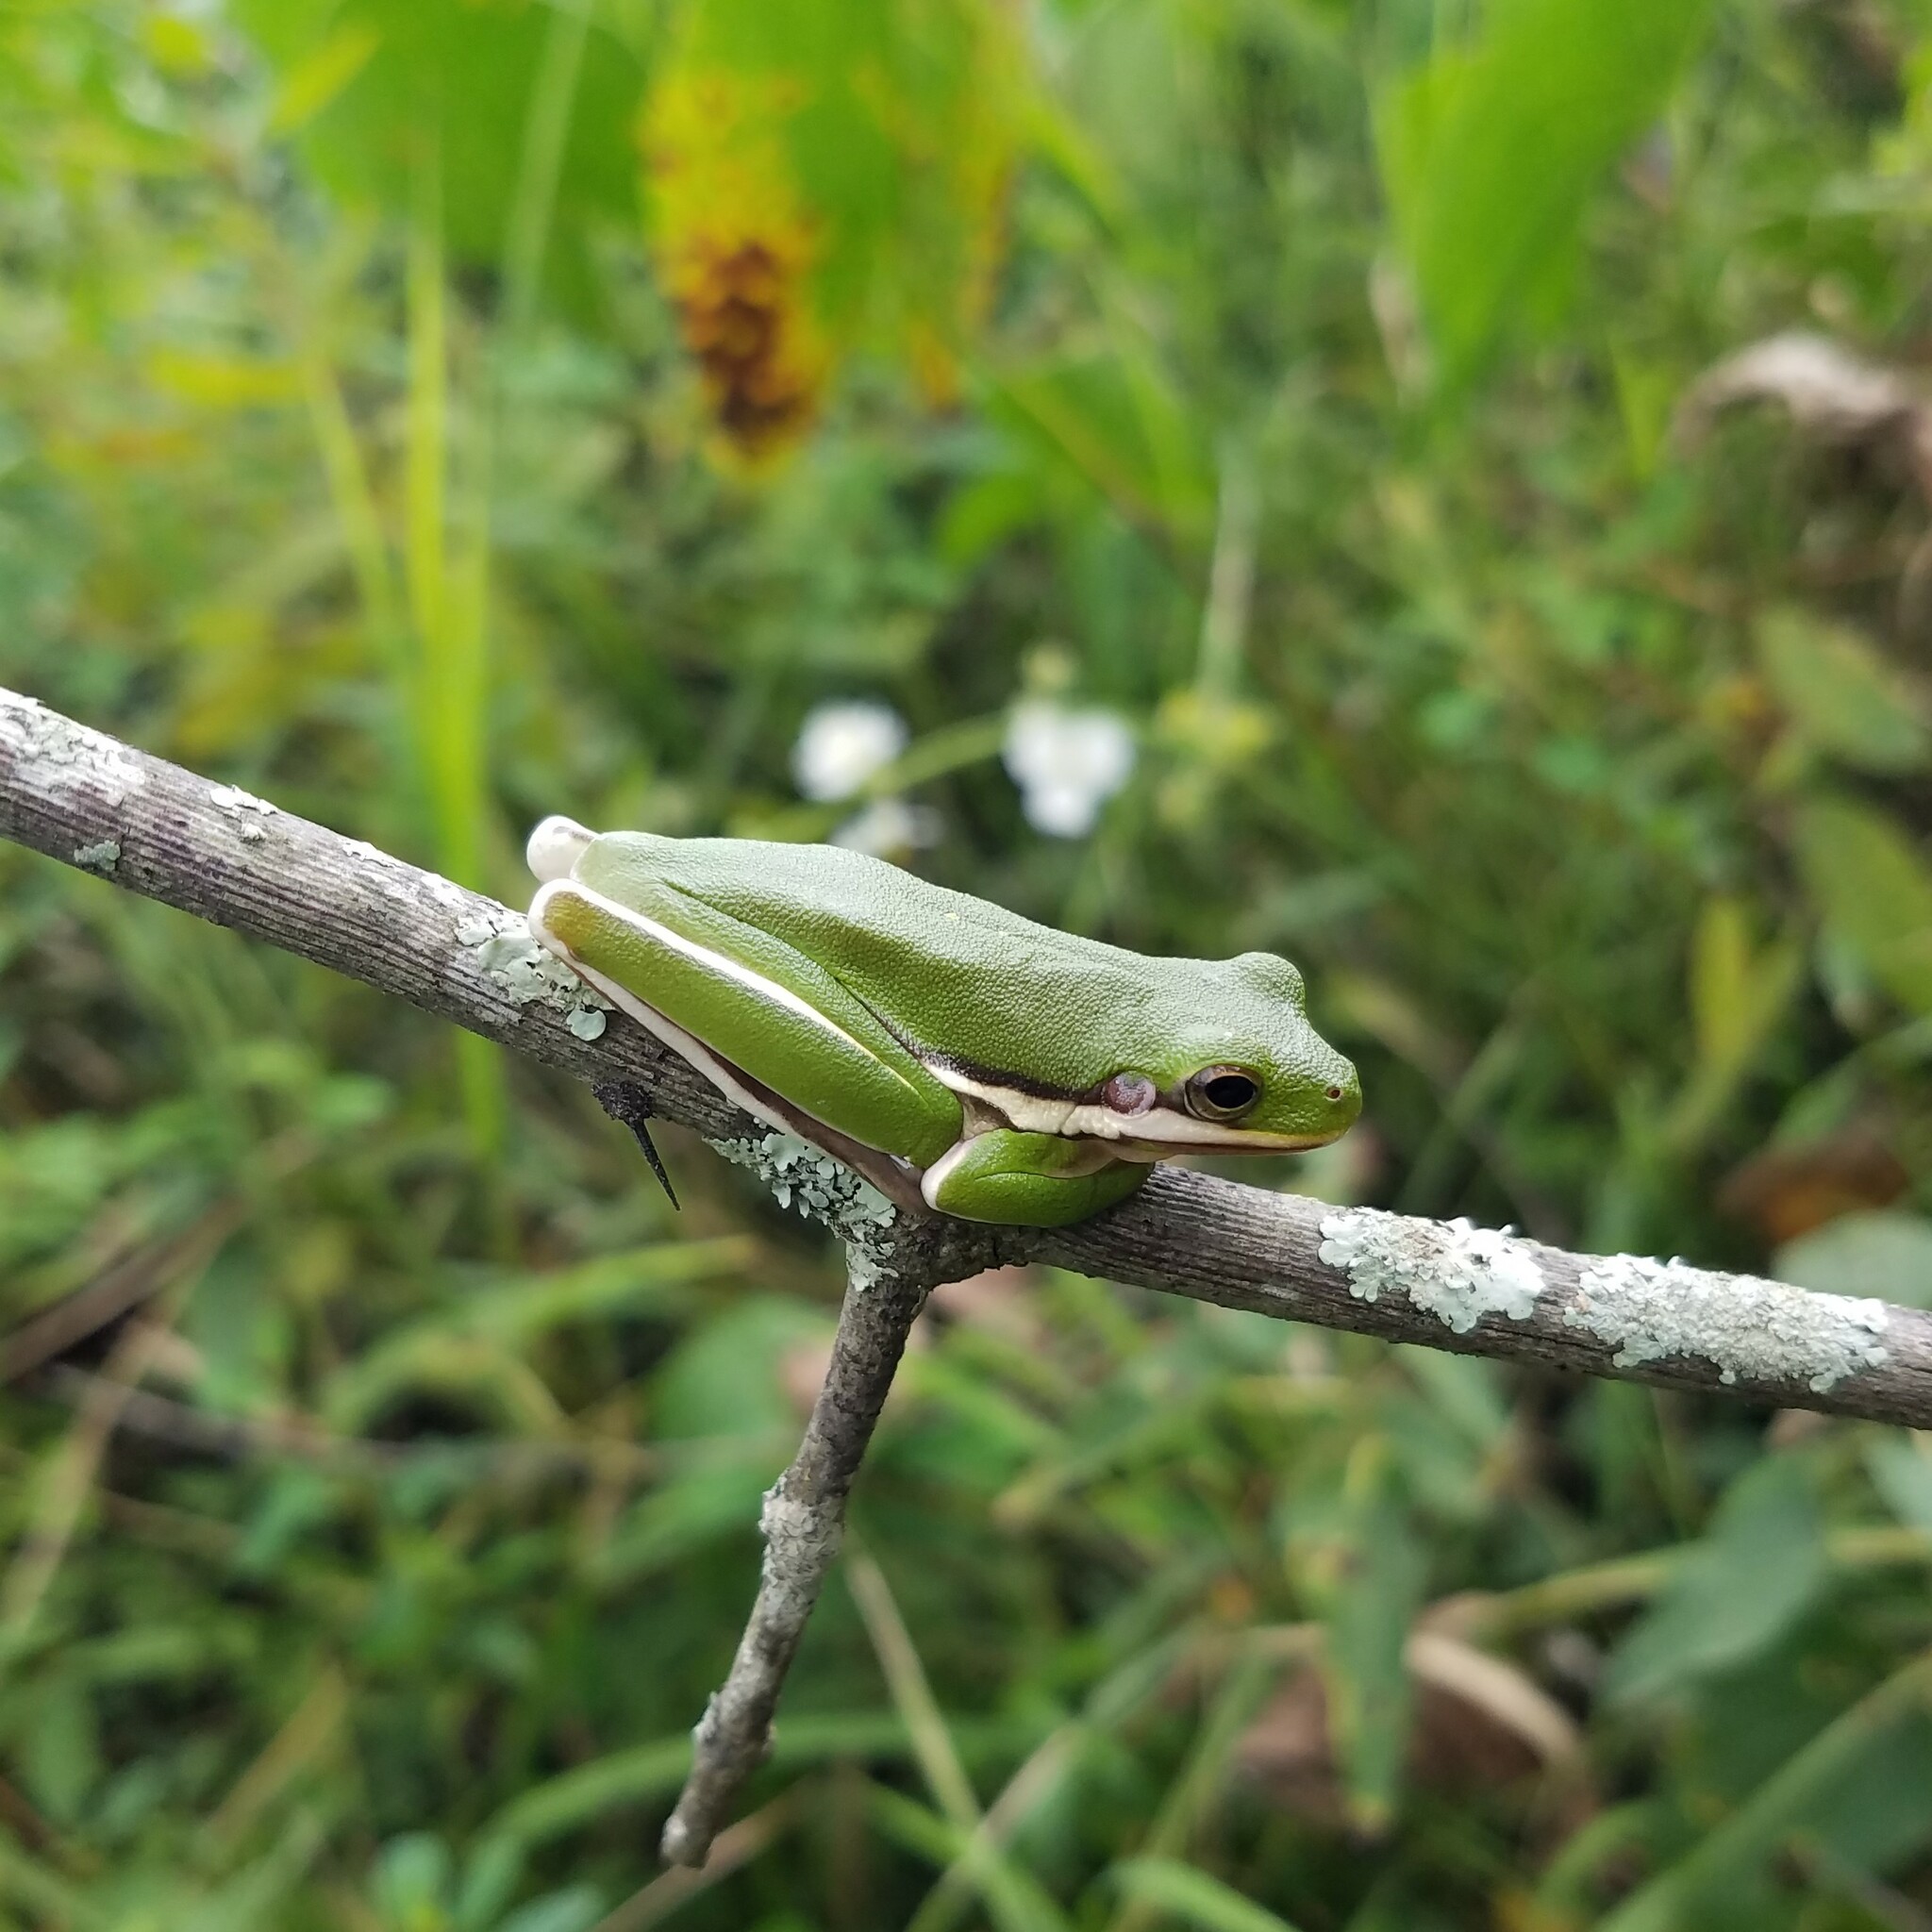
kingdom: Animalia
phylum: Chordata
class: Amphibia
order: Anura
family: Hylidae
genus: Dryophytes
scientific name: Dryophytes cinereus
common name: Green treefrog
